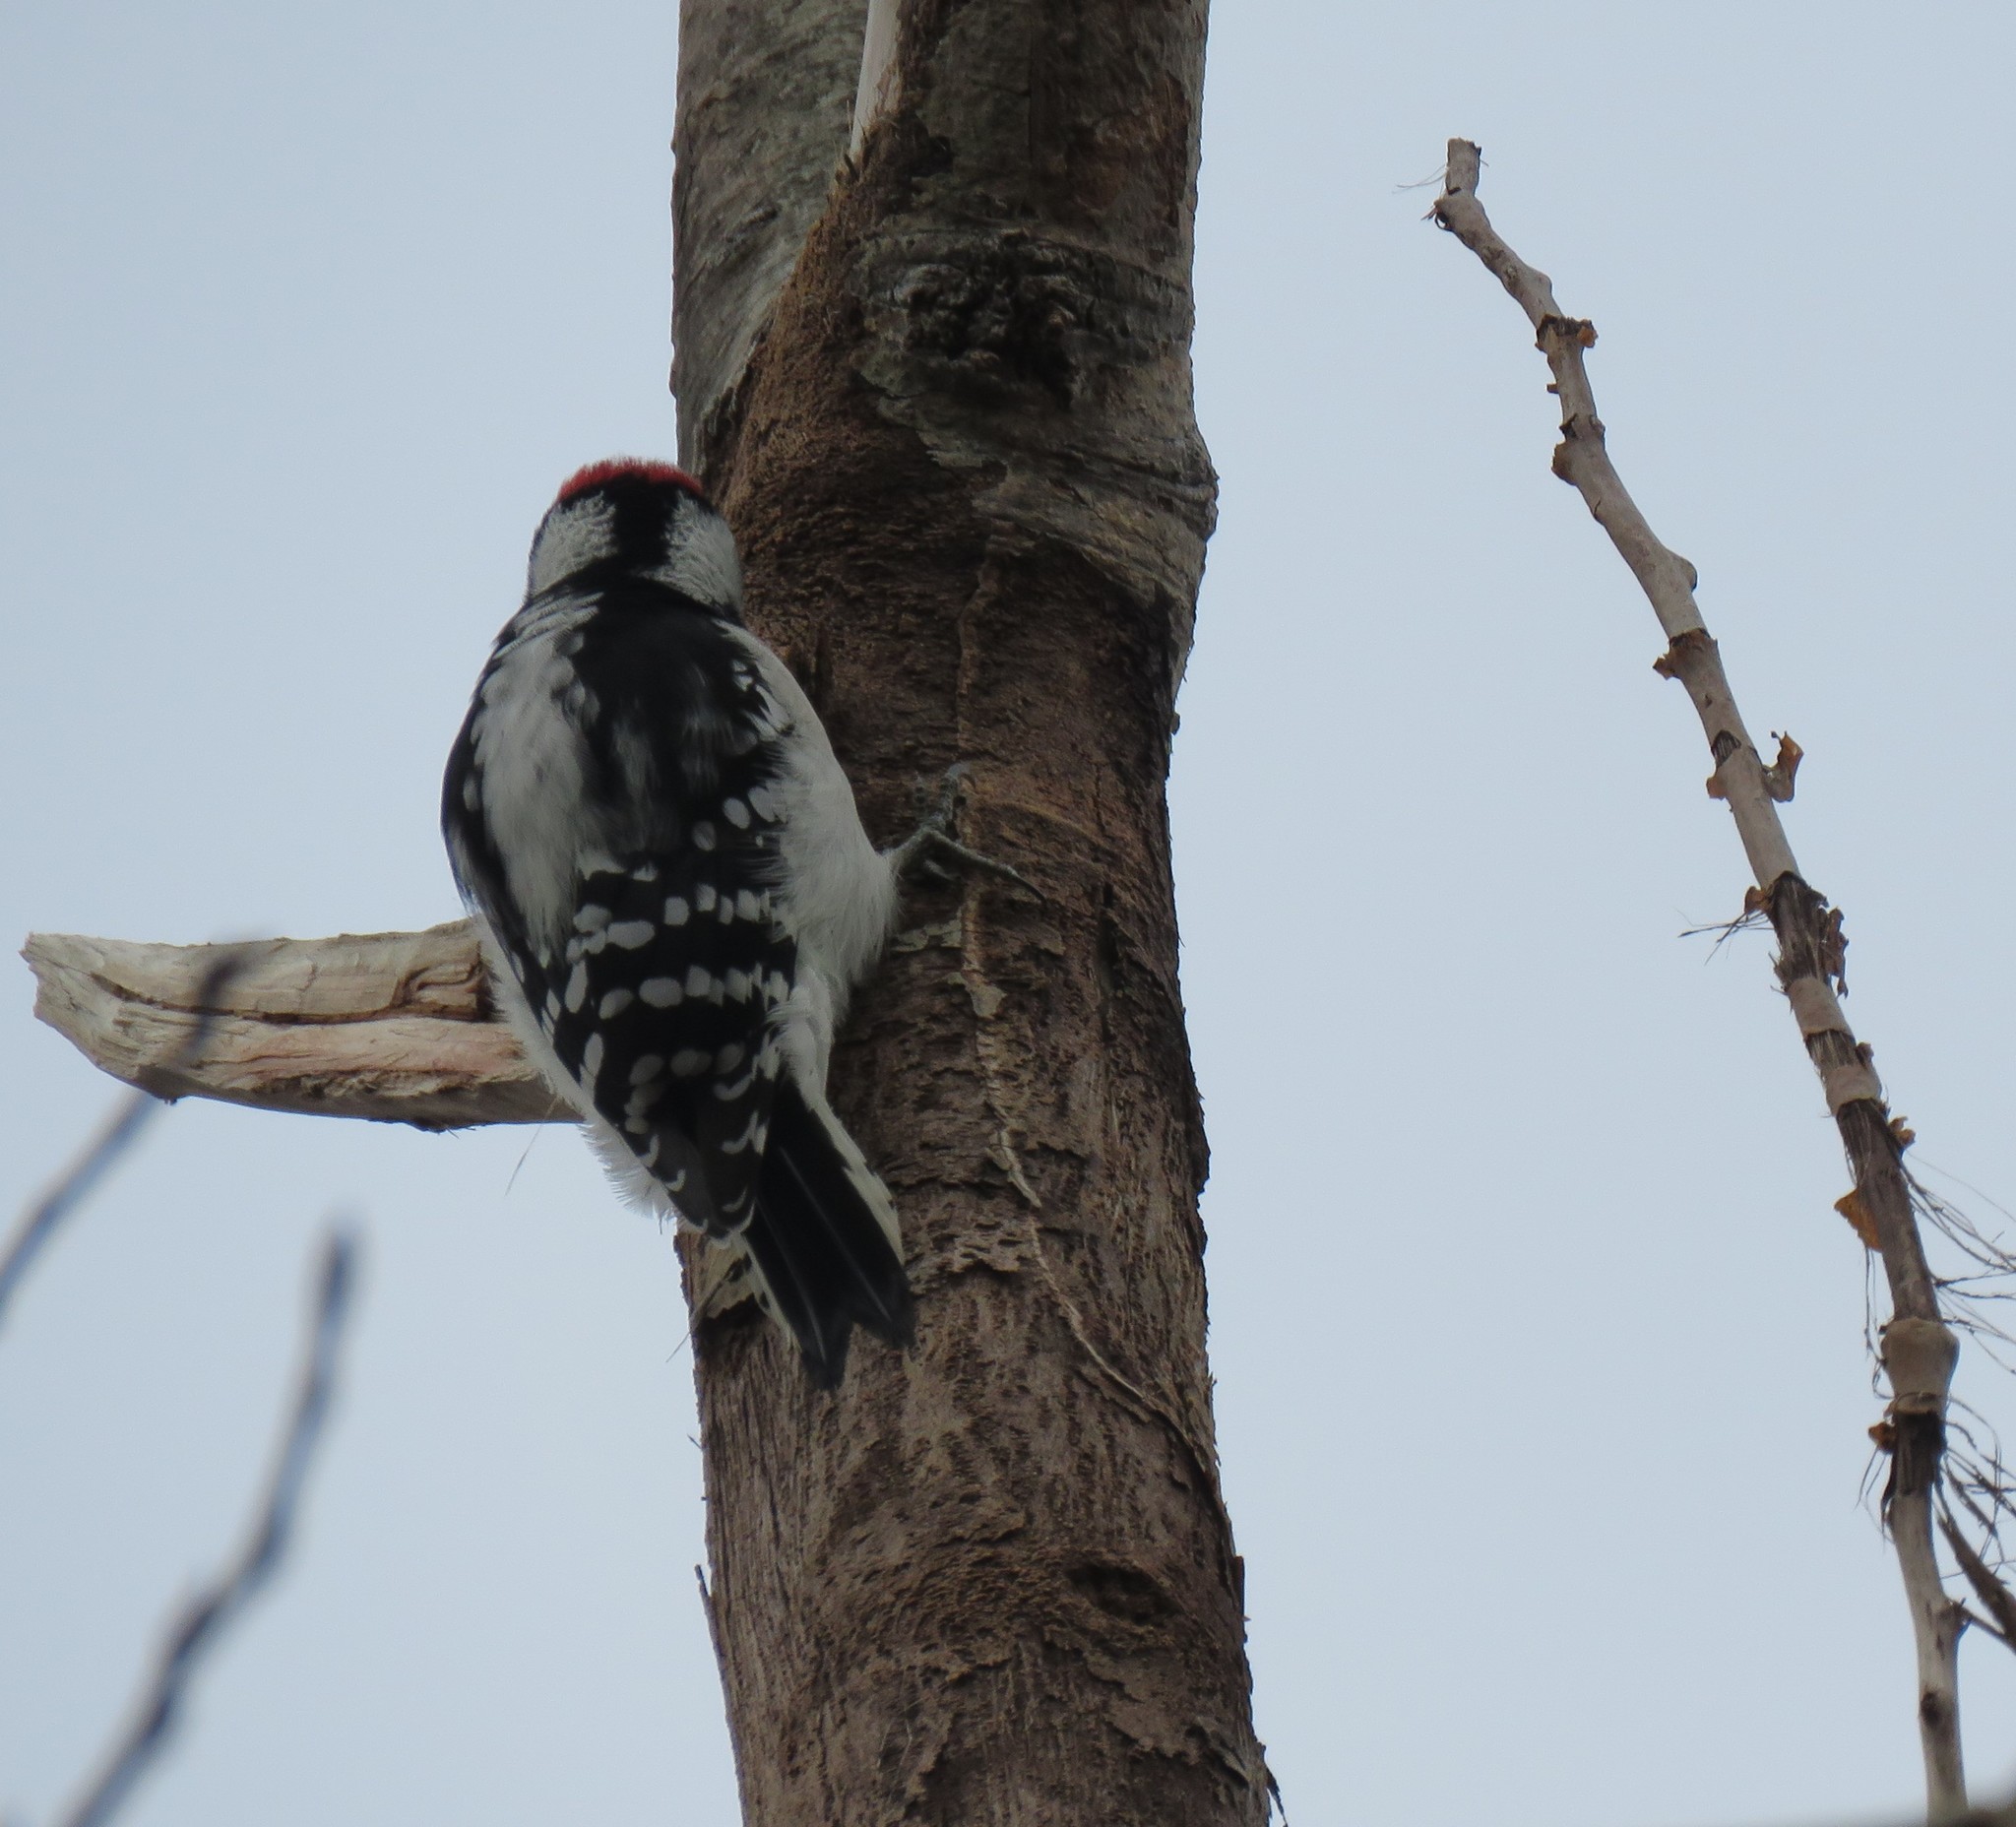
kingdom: Animalia
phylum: Chordata
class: Aves
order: Piciformes
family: Picidae
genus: Dryobates
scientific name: Dryobates pubescens
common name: Downy woodpecker
